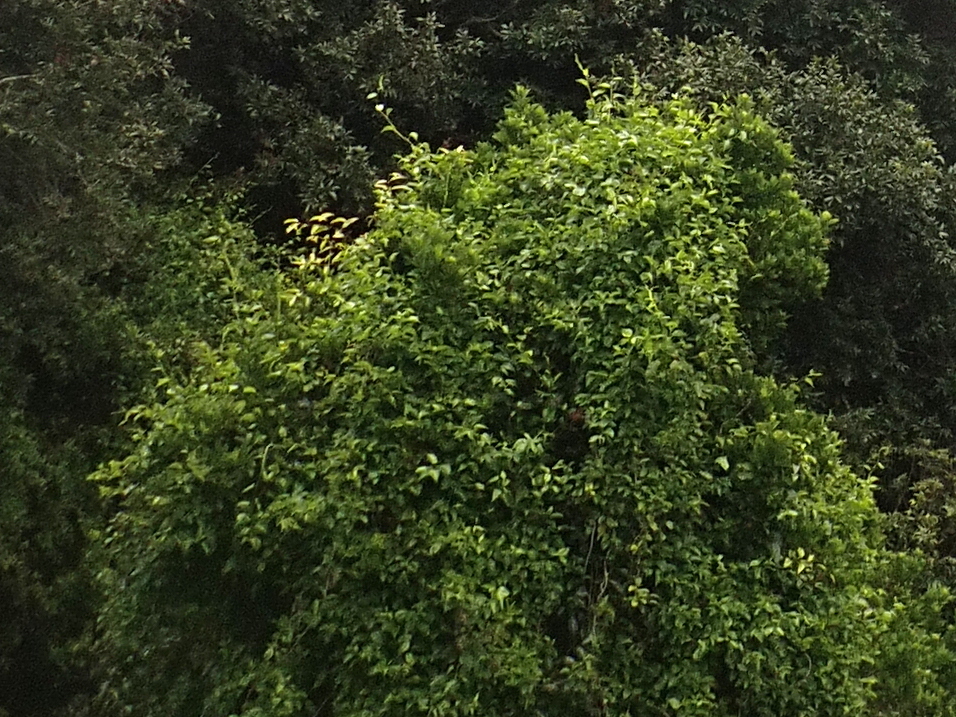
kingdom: Plantae
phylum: Tracheophyta
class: Magnoliopsida
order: Caryophyllales
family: Polygonaceae
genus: Muehlenbeckia
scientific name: Muehlenbeckia australis
